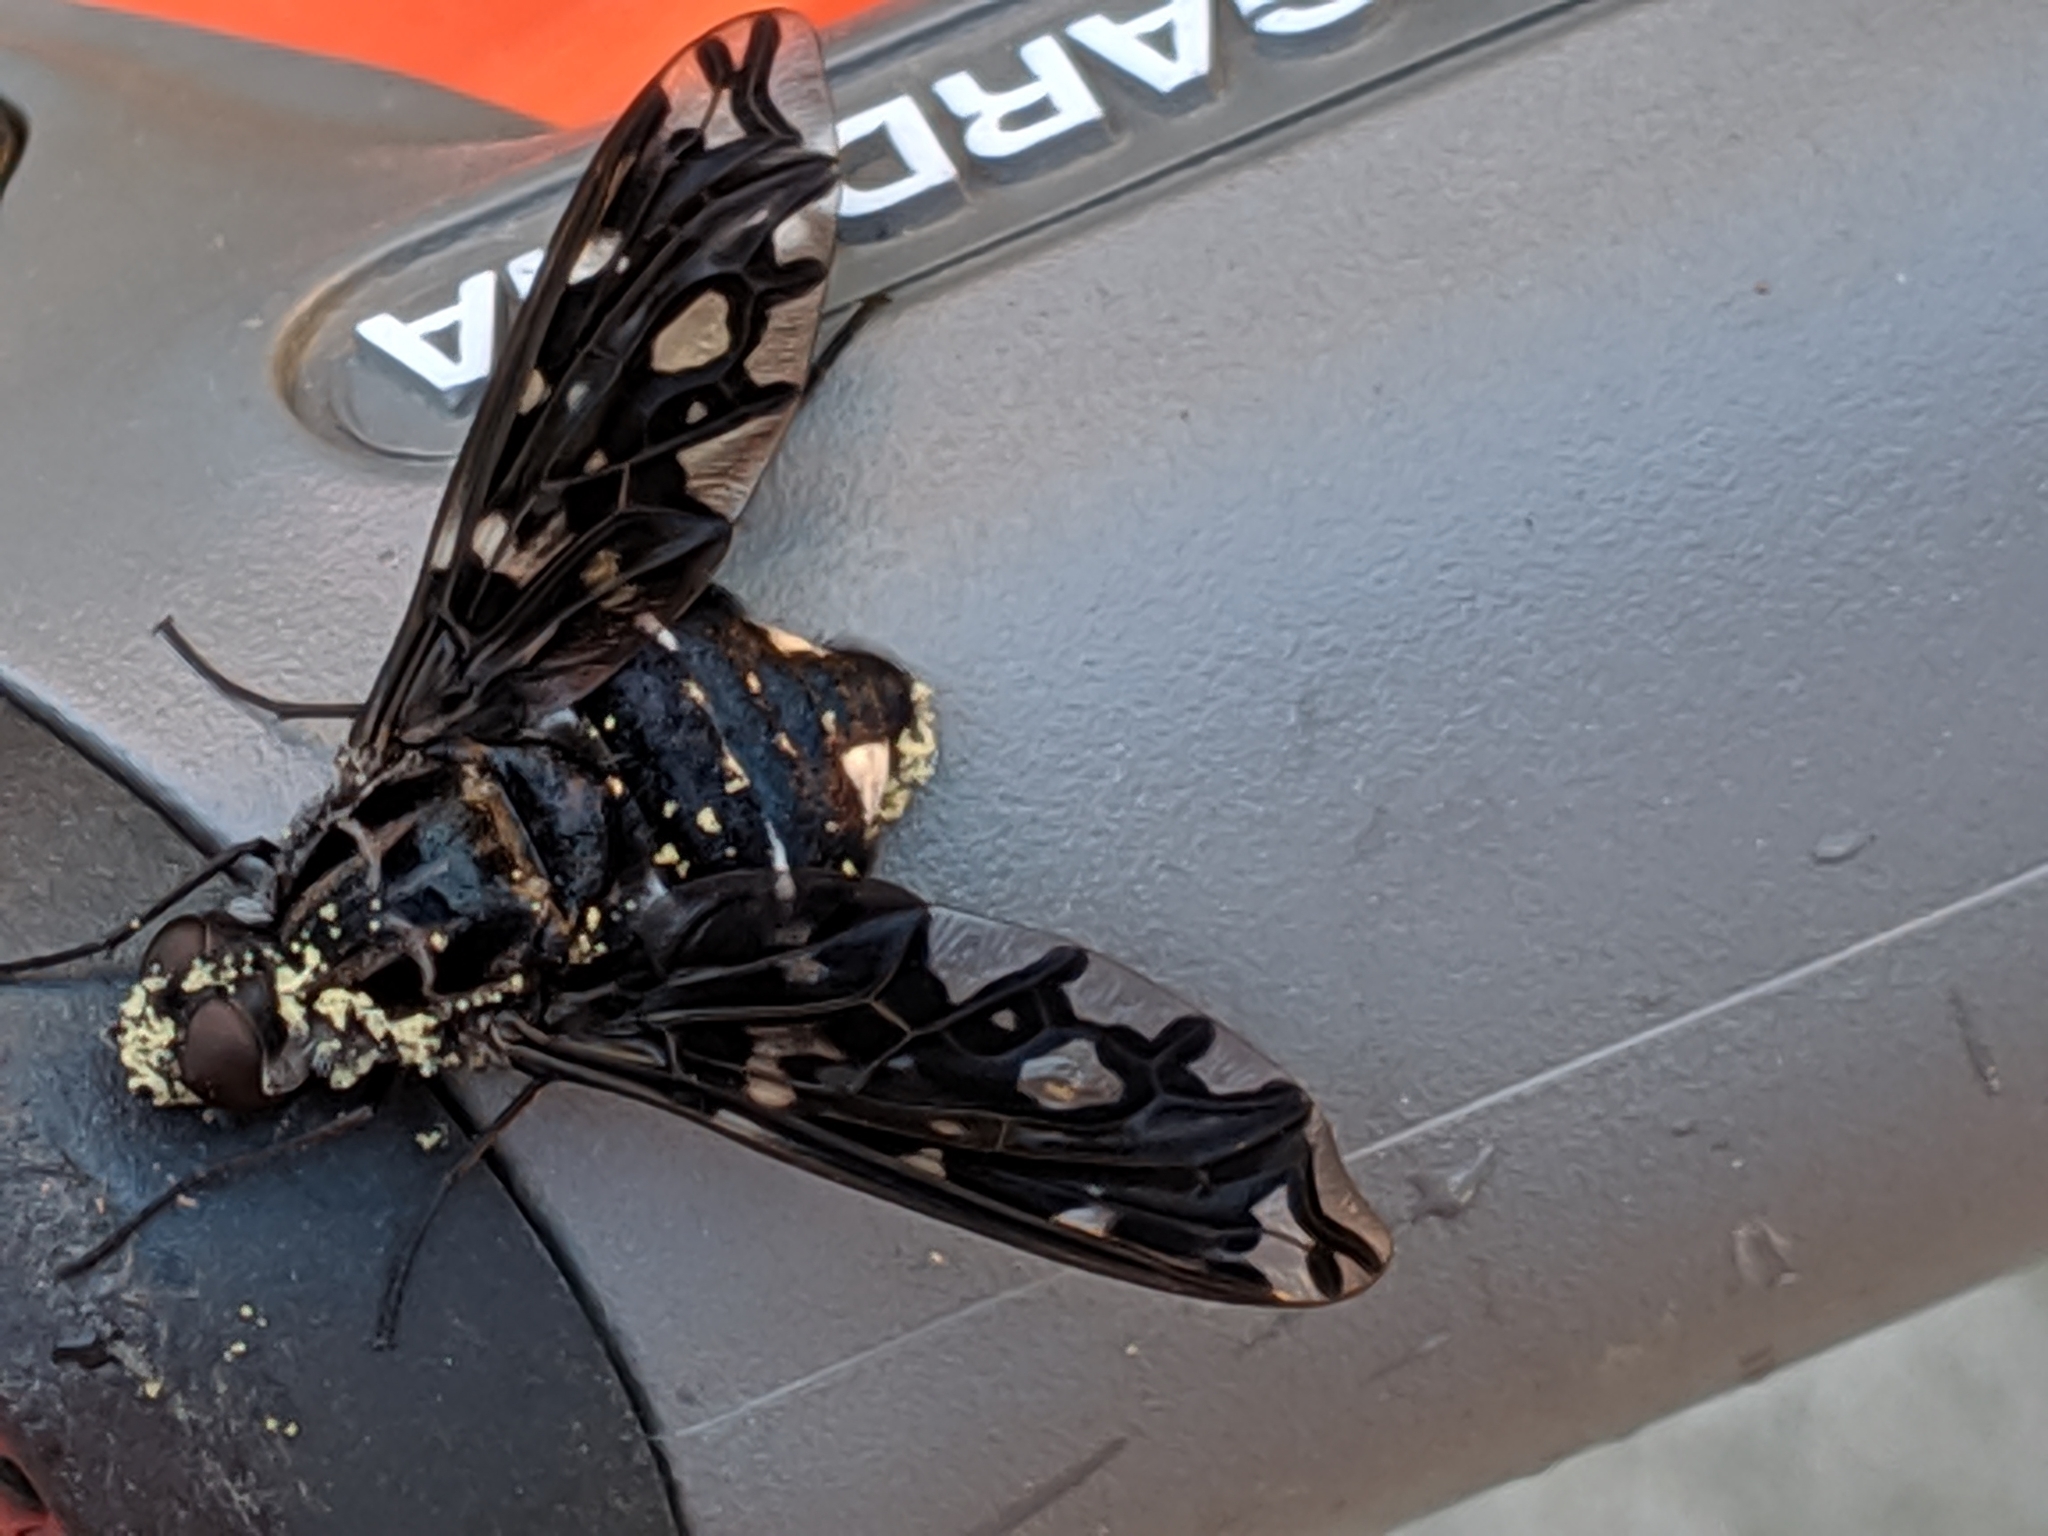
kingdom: Animalia
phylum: Arthropoda
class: Insecta
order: Diptera
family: Bombyliidae
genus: Xenox
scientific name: Xenox tigrinus
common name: Tiger bee fly
